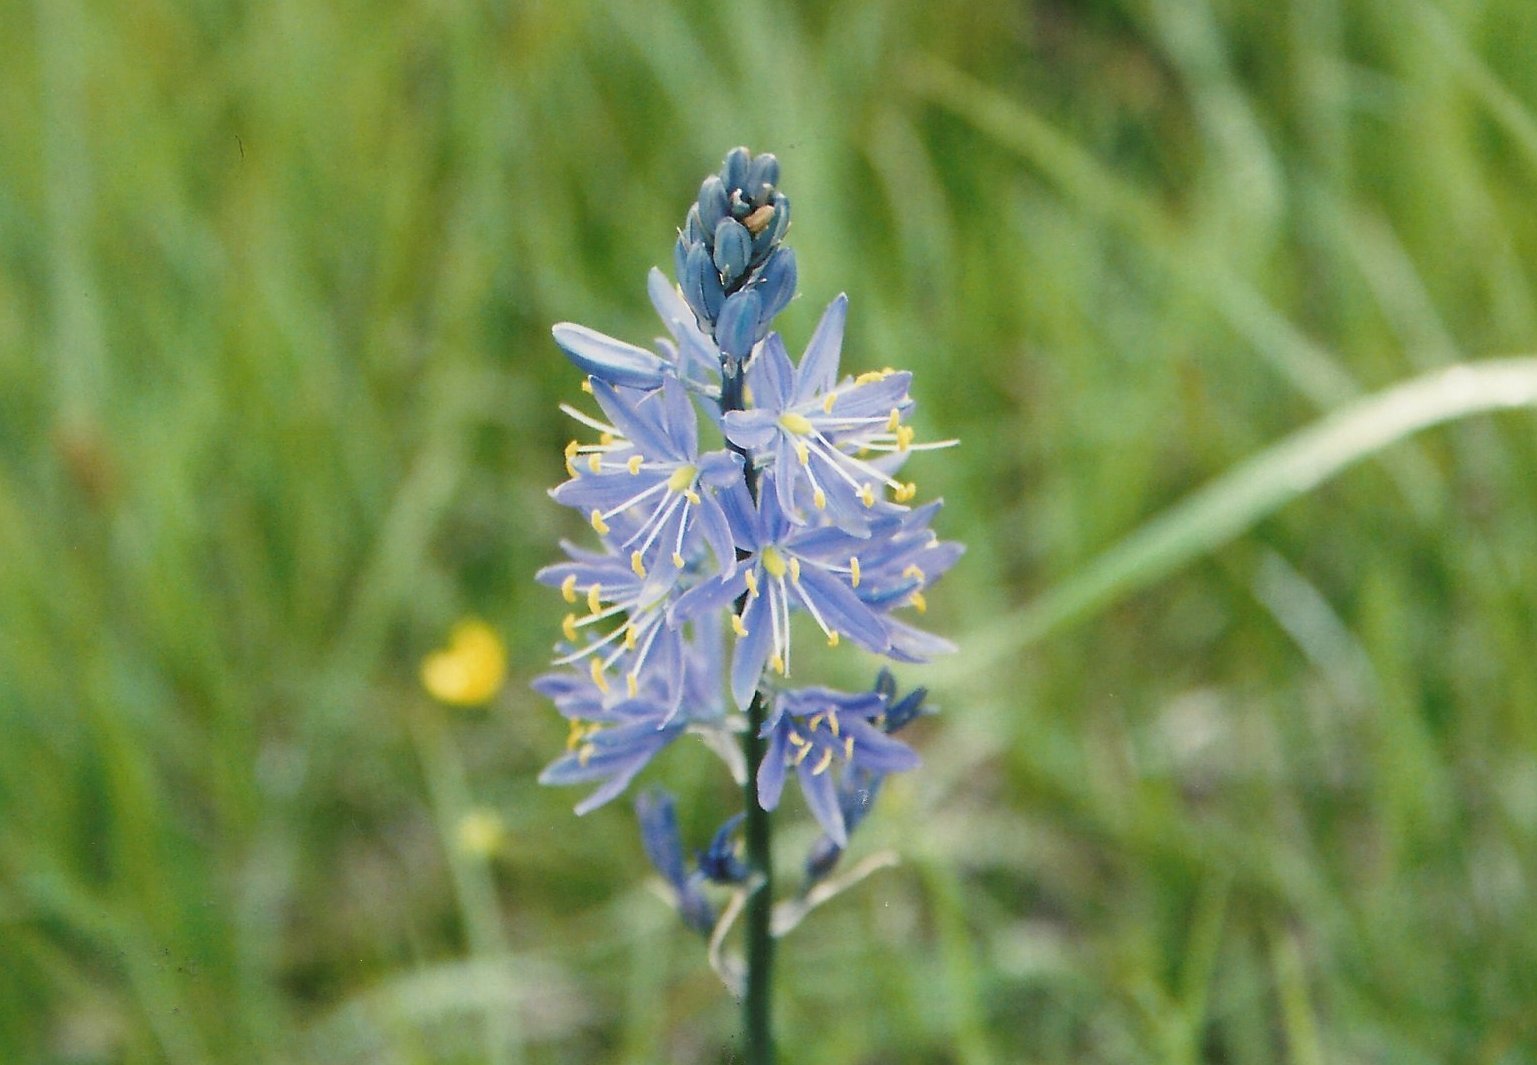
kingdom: Plantae
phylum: Tracheophyta
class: Liliopsida
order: Asparagales
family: Asparagaceae
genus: Camassia
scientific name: Camassia quamash
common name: Common camas
